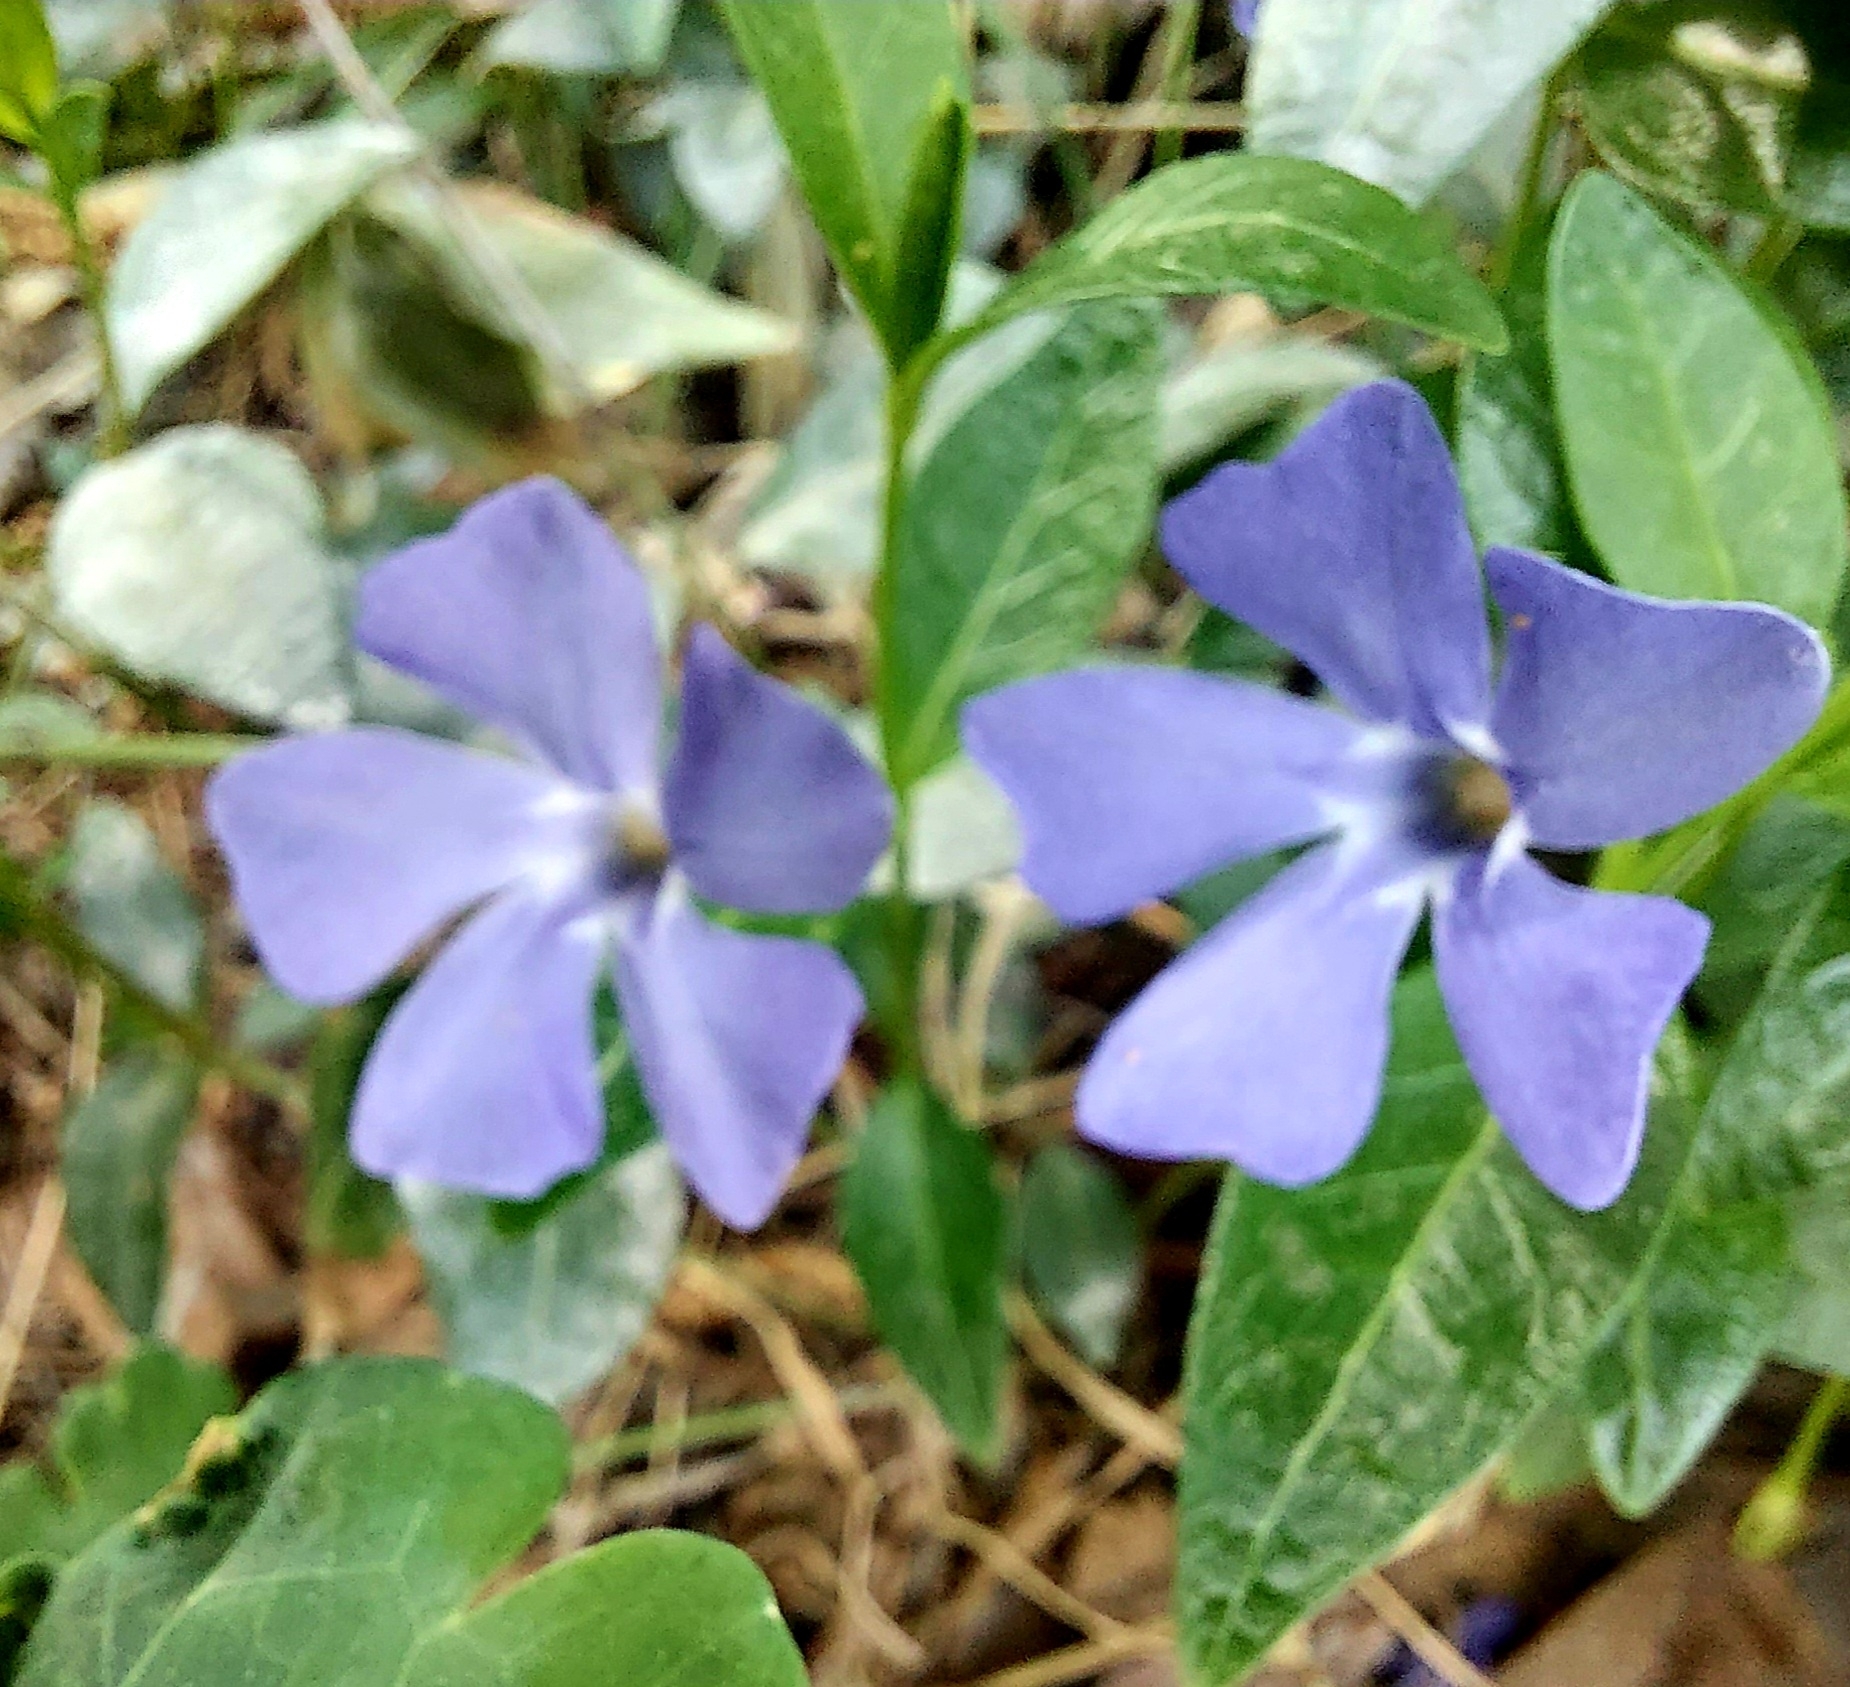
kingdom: Plantae
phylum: Tracheophyta
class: Magnoliopsida
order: Gentianales
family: Apocynaceae
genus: Vinca
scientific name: Vinca minor
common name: Lesser periwinkle
